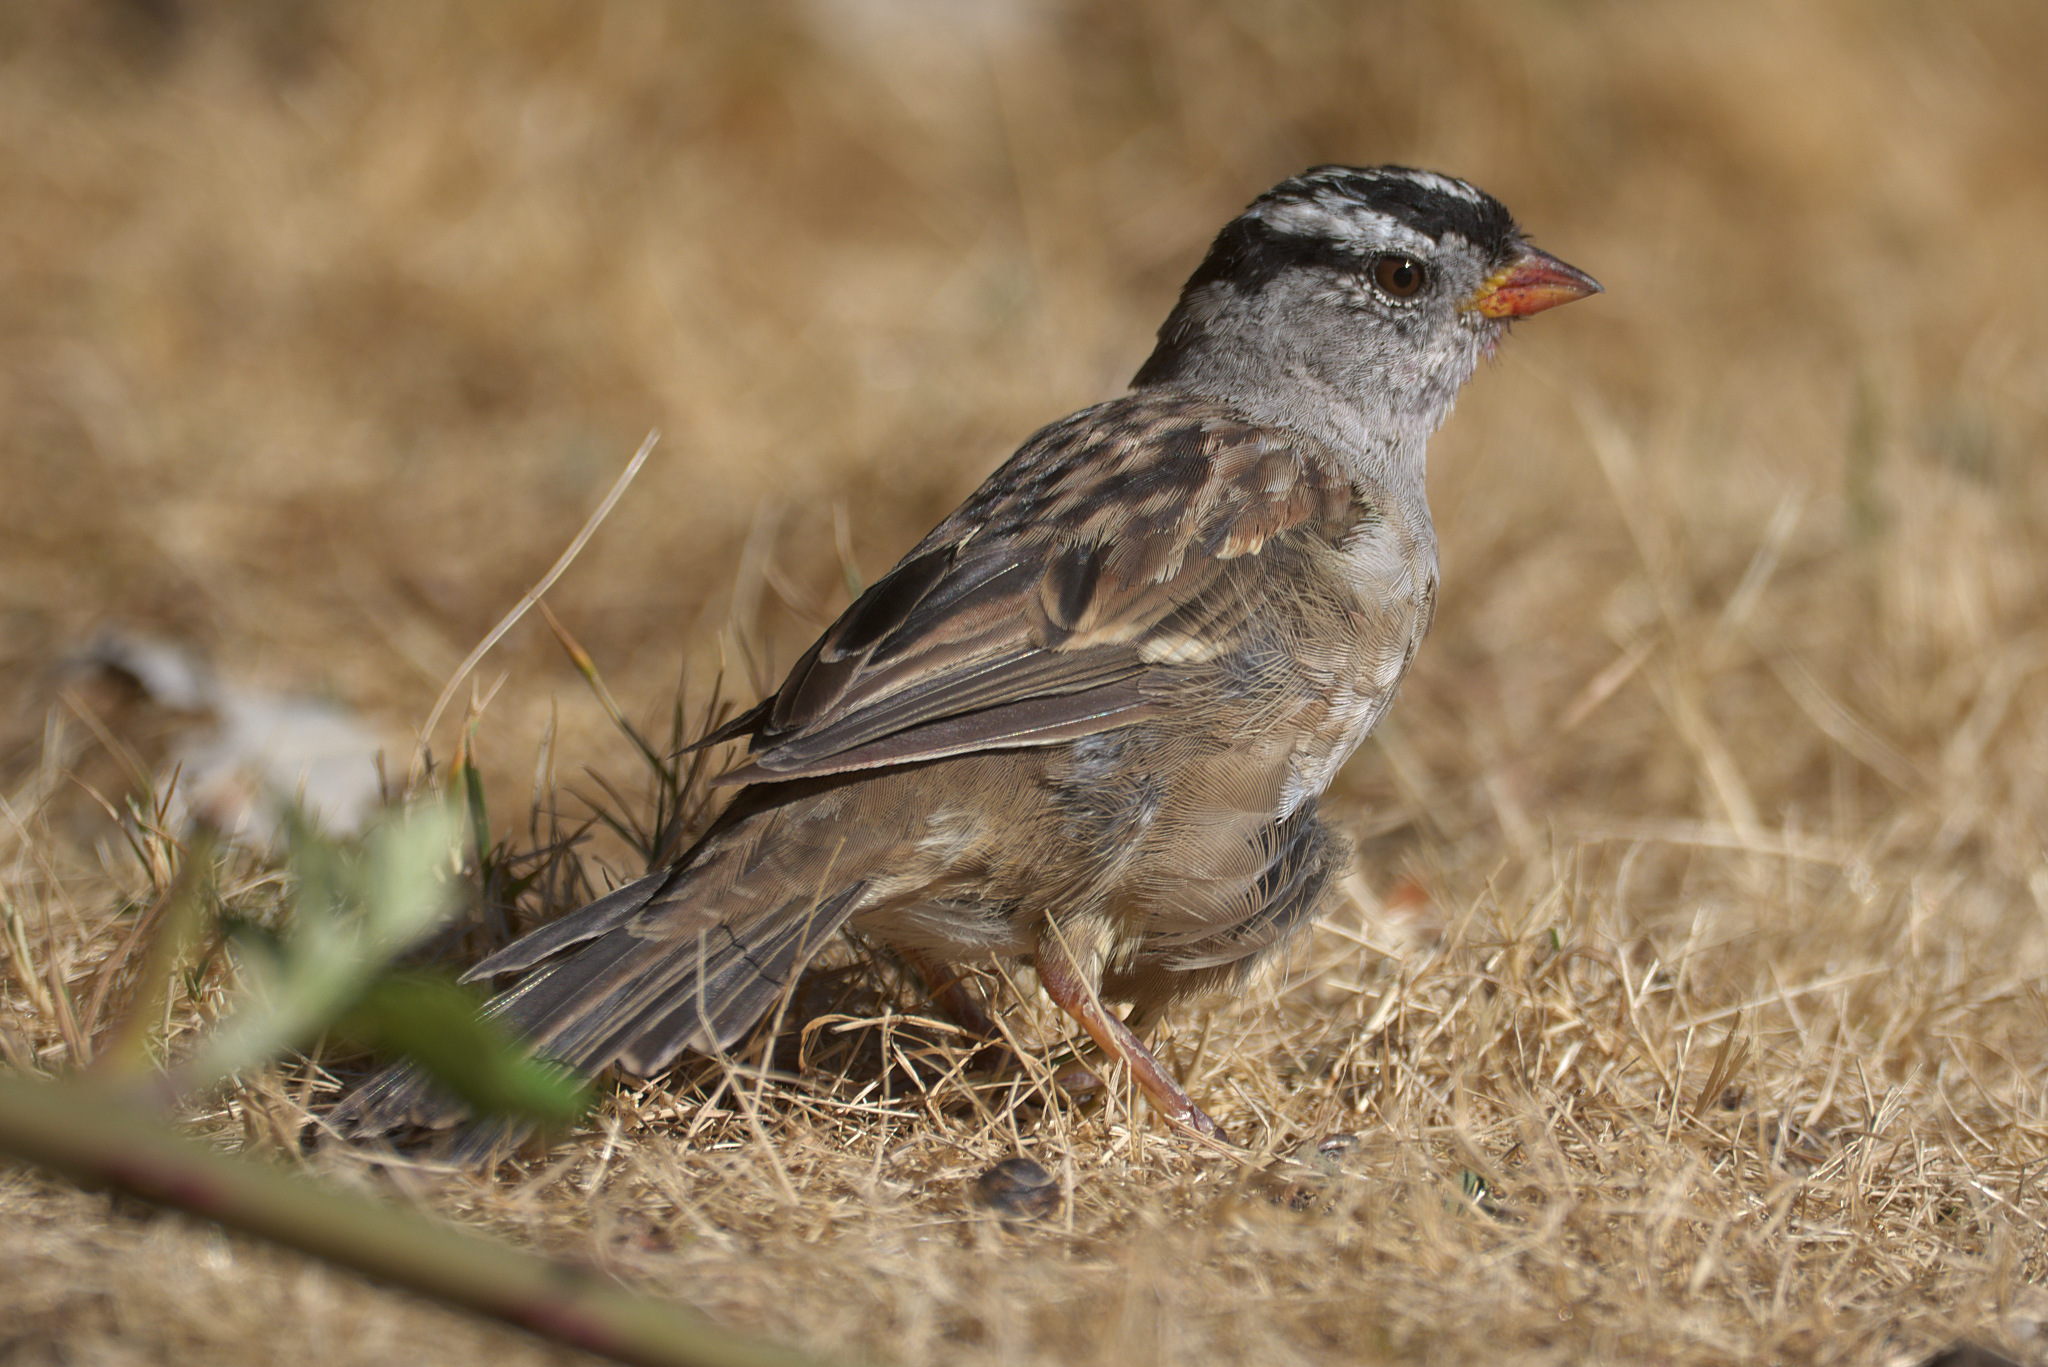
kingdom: Animalia
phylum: Chordata
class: Aves
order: Passeriformes
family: Passerellidae
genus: Zonotrichia
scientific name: Zonotrichia leucophrys
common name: White-crowned sparrow
